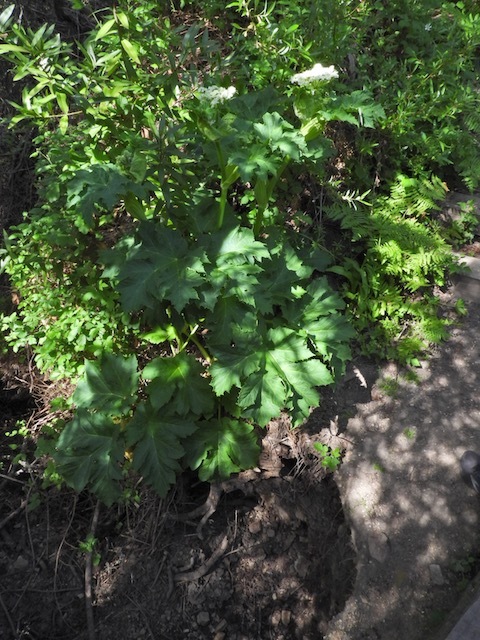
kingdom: Plantae
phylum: Tracheophyta
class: Magnoliopsida
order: Apiales
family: Apiaceae
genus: Heracleum
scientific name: Heracleum maximum
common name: American cow parsnip
